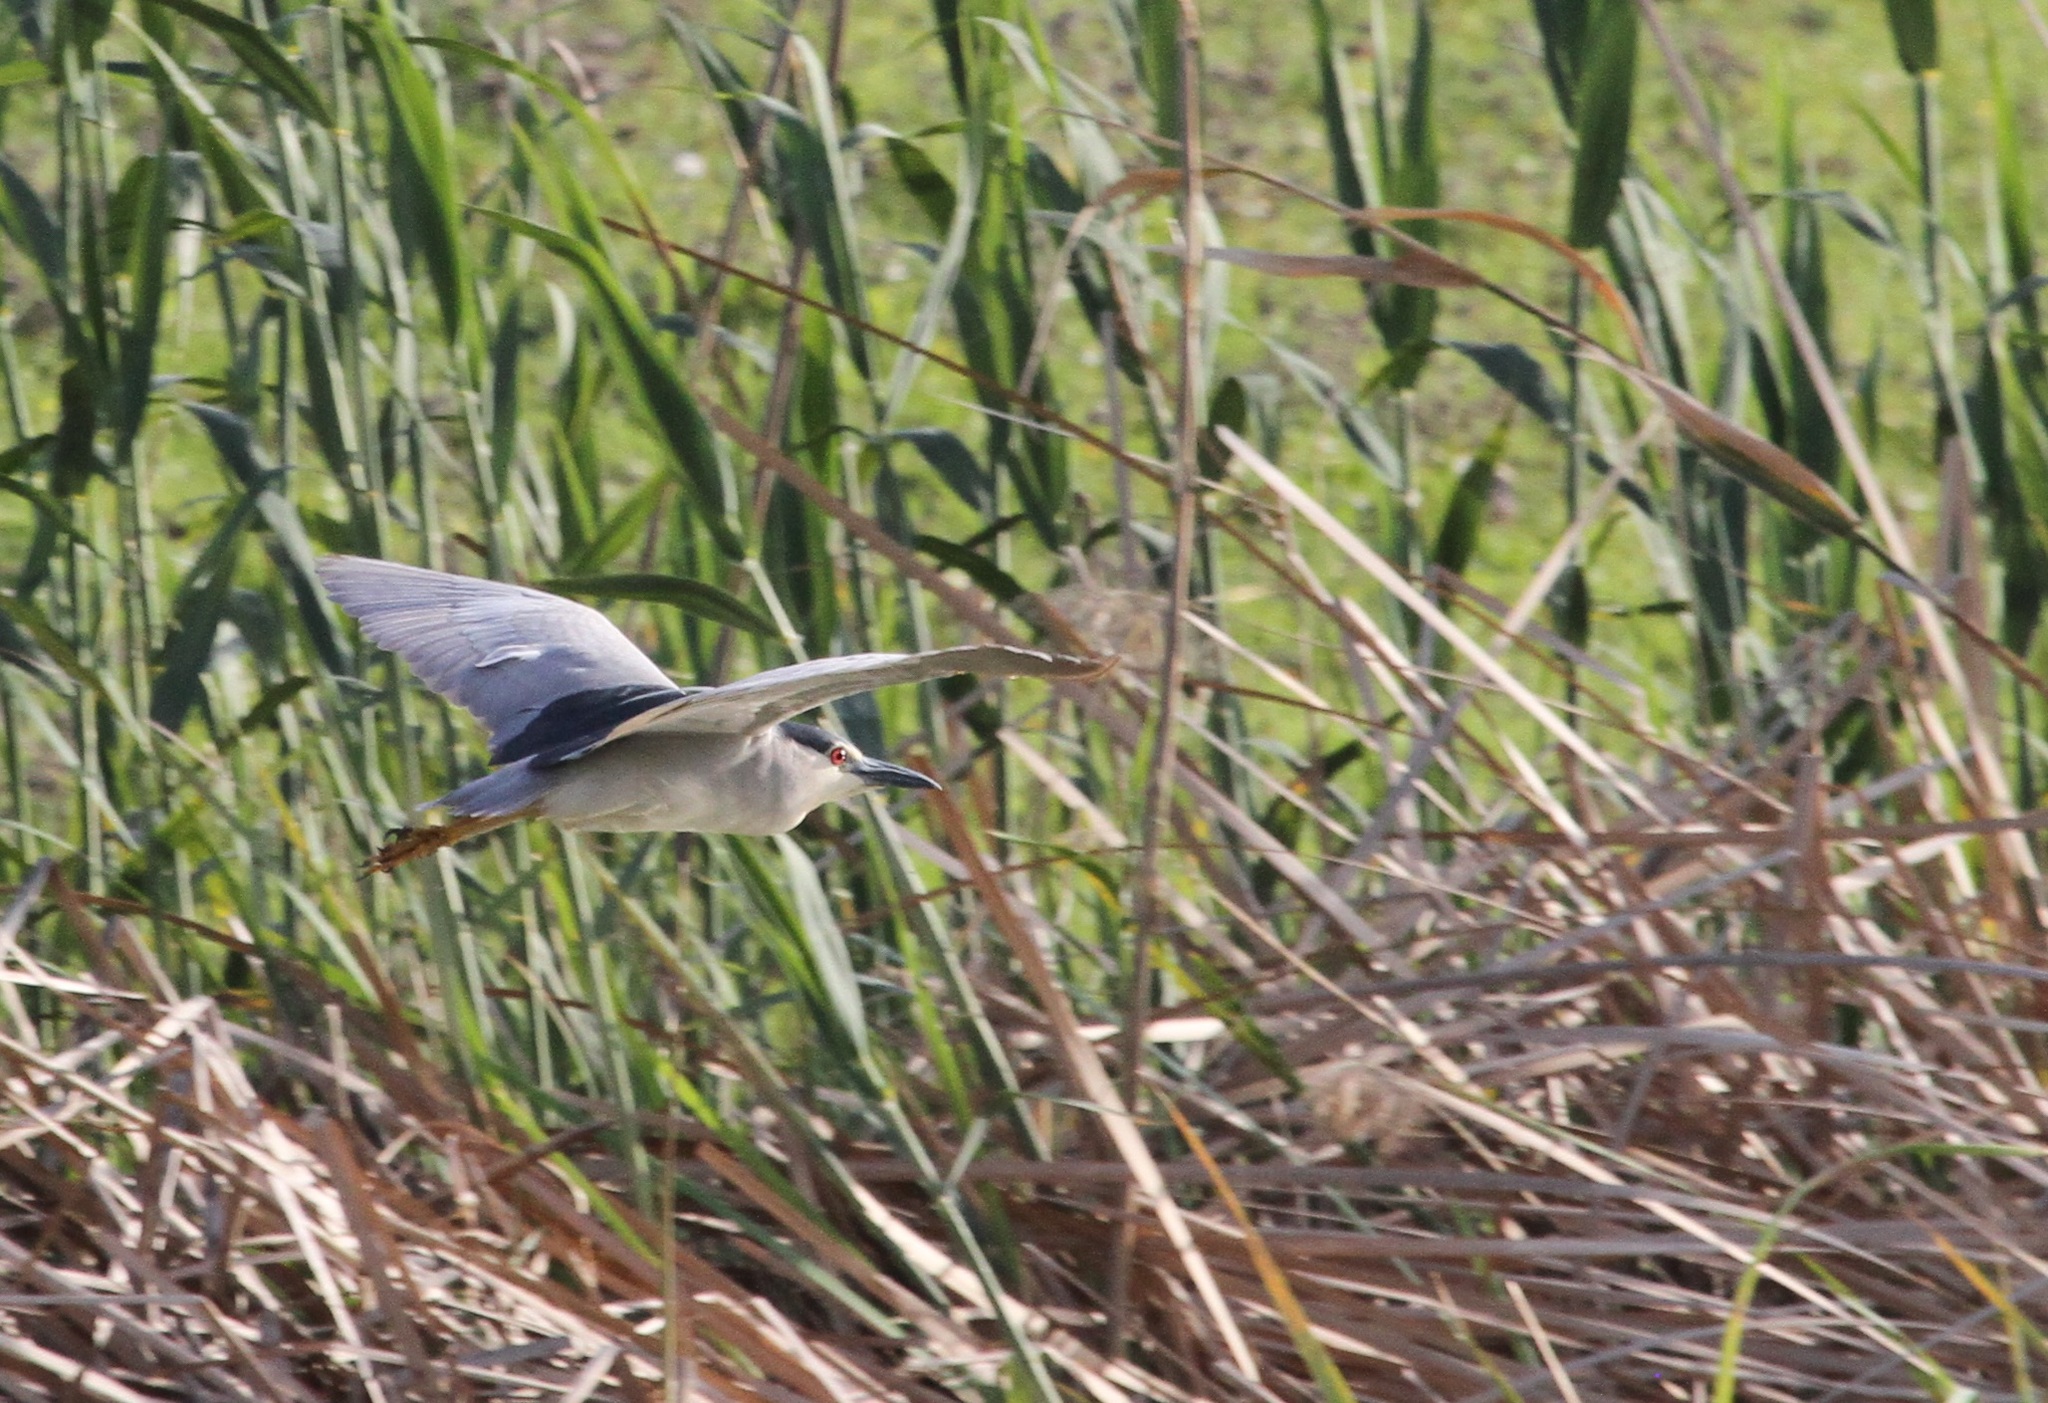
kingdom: Animalia
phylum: Chordata
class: Aves
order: Pelecaniformes
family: Ardeidae
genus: Nycticorax
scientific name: Nycticorax nycticorax
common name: Black-crowned night heron
